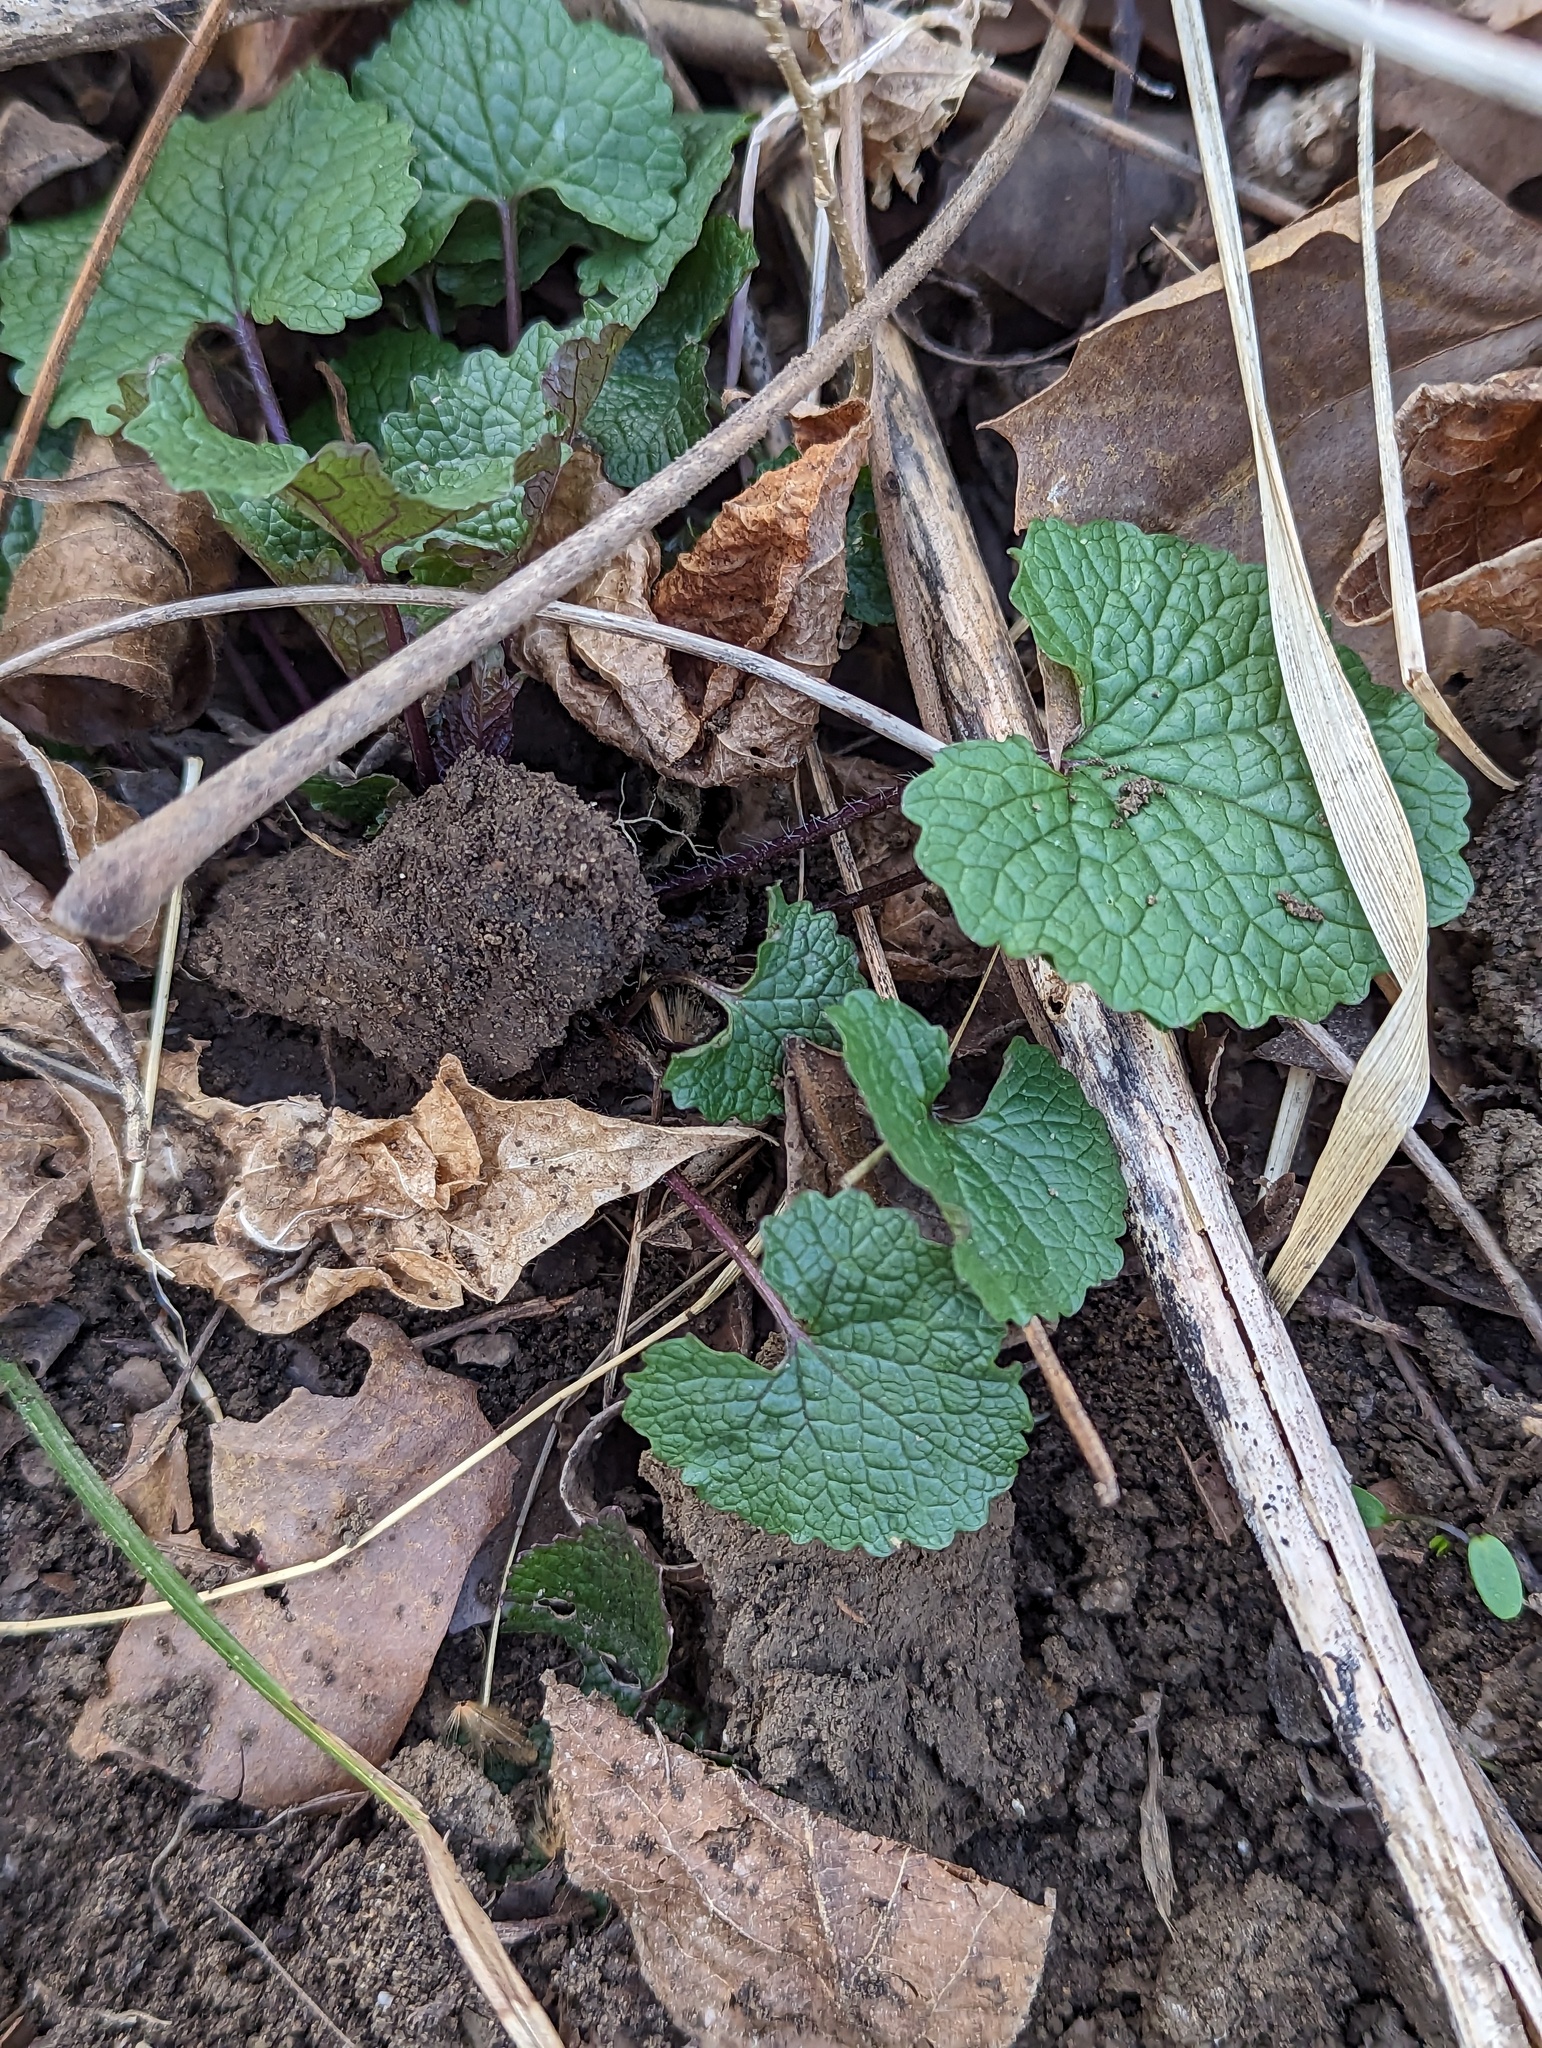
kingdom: Plantae
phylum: Tracheophyta
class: Magnoliopsida
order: Brassicales
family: Brassicaceae
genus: Alliaria
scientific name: Alliaria petiolata
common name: Garlic mustard
